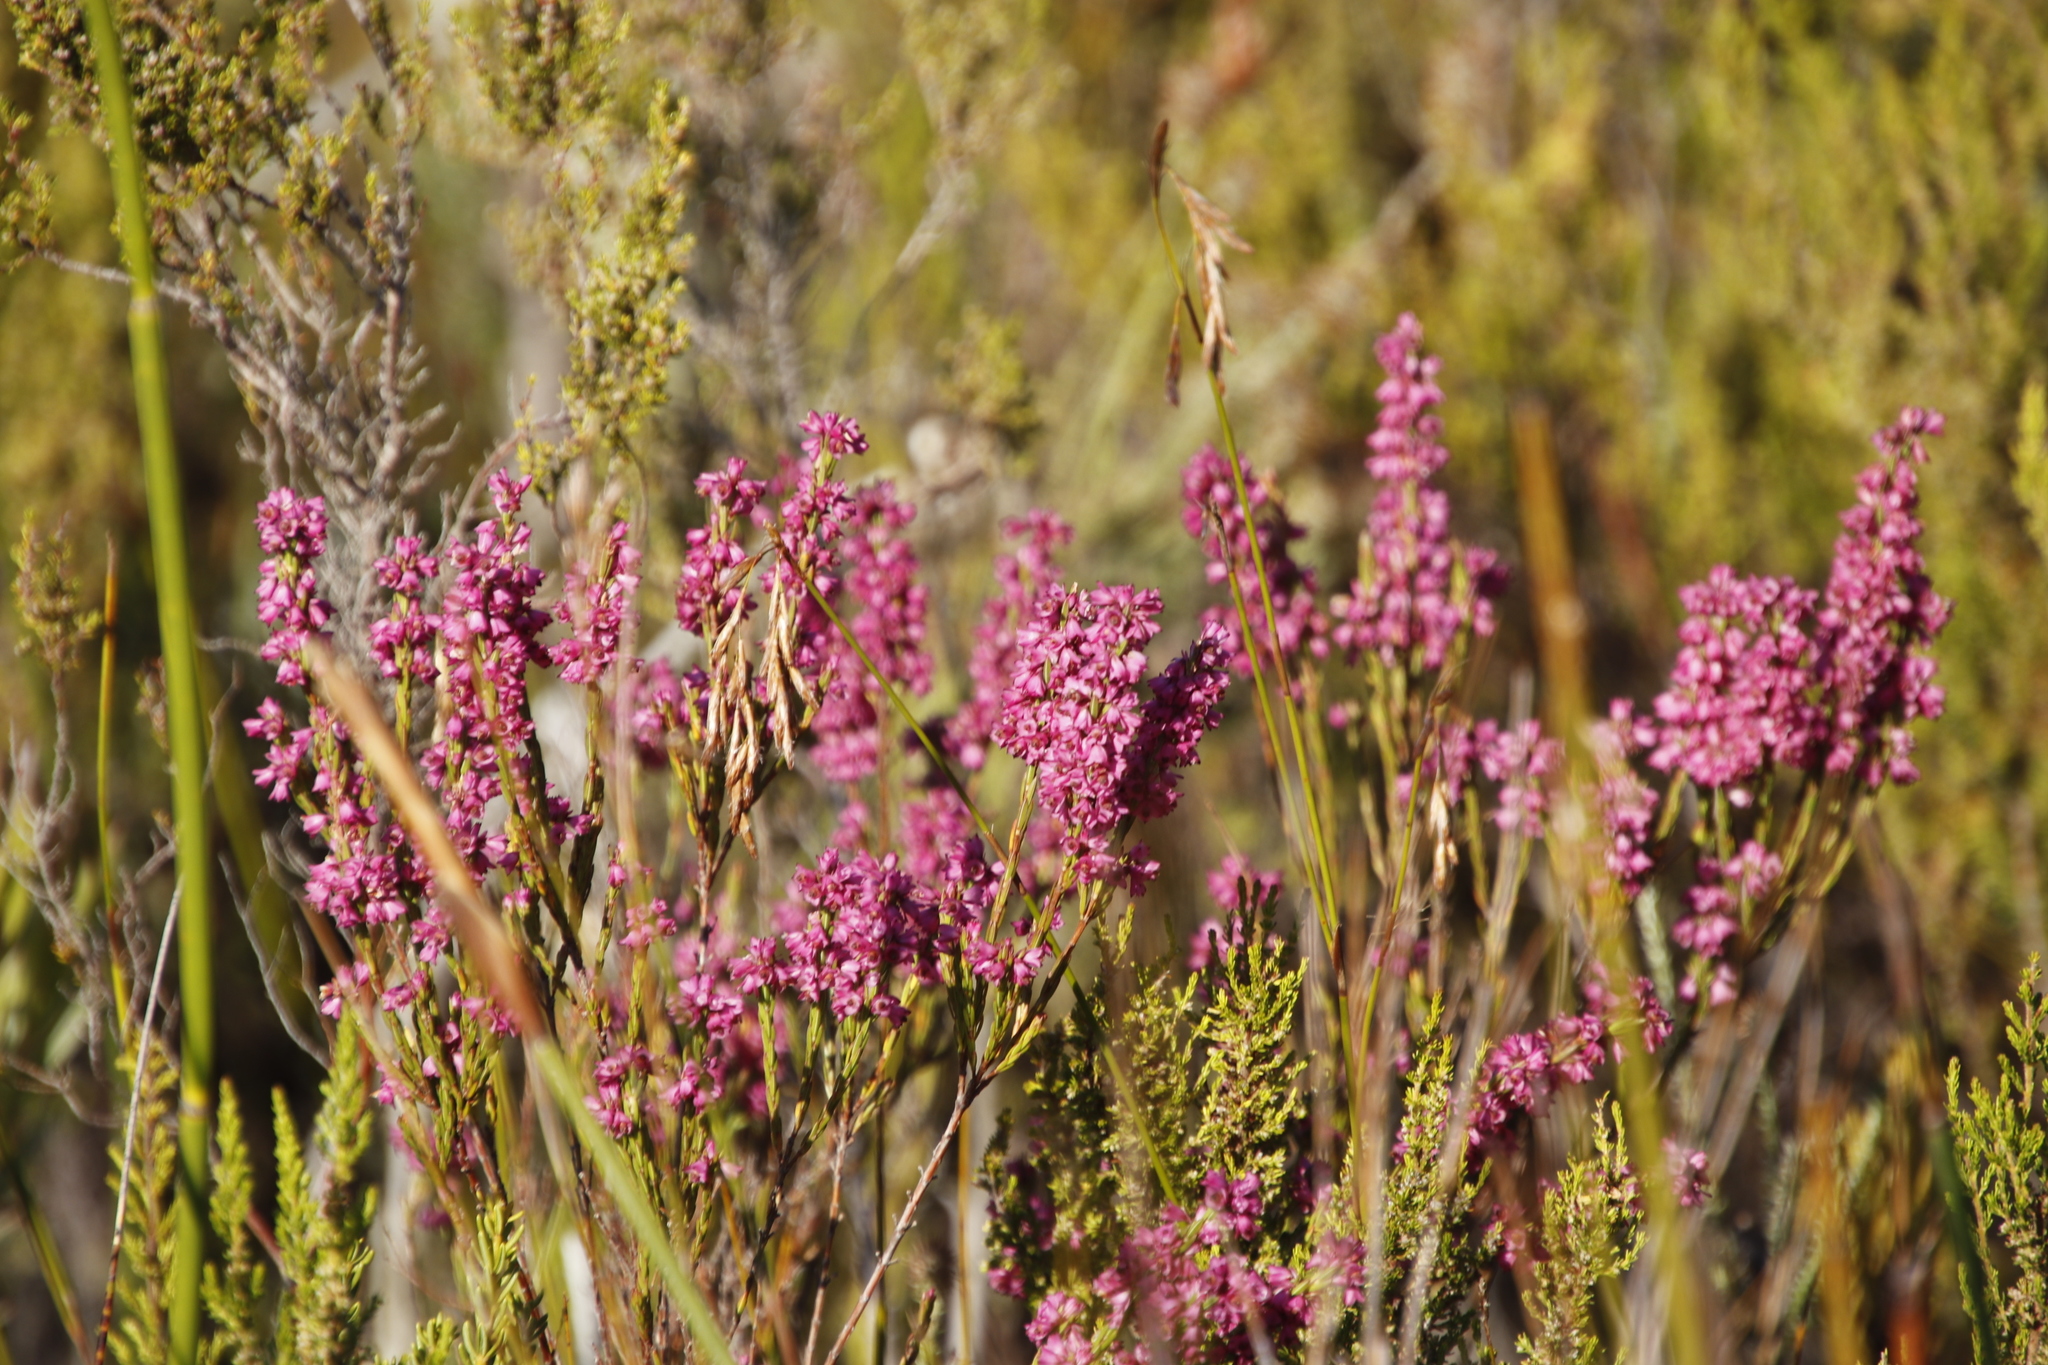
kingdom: Plantae
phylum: Tracheophyta
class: Magnoliopsida
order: Ericales
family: Ericaceae
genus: Erica
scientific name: Erica corifolia
